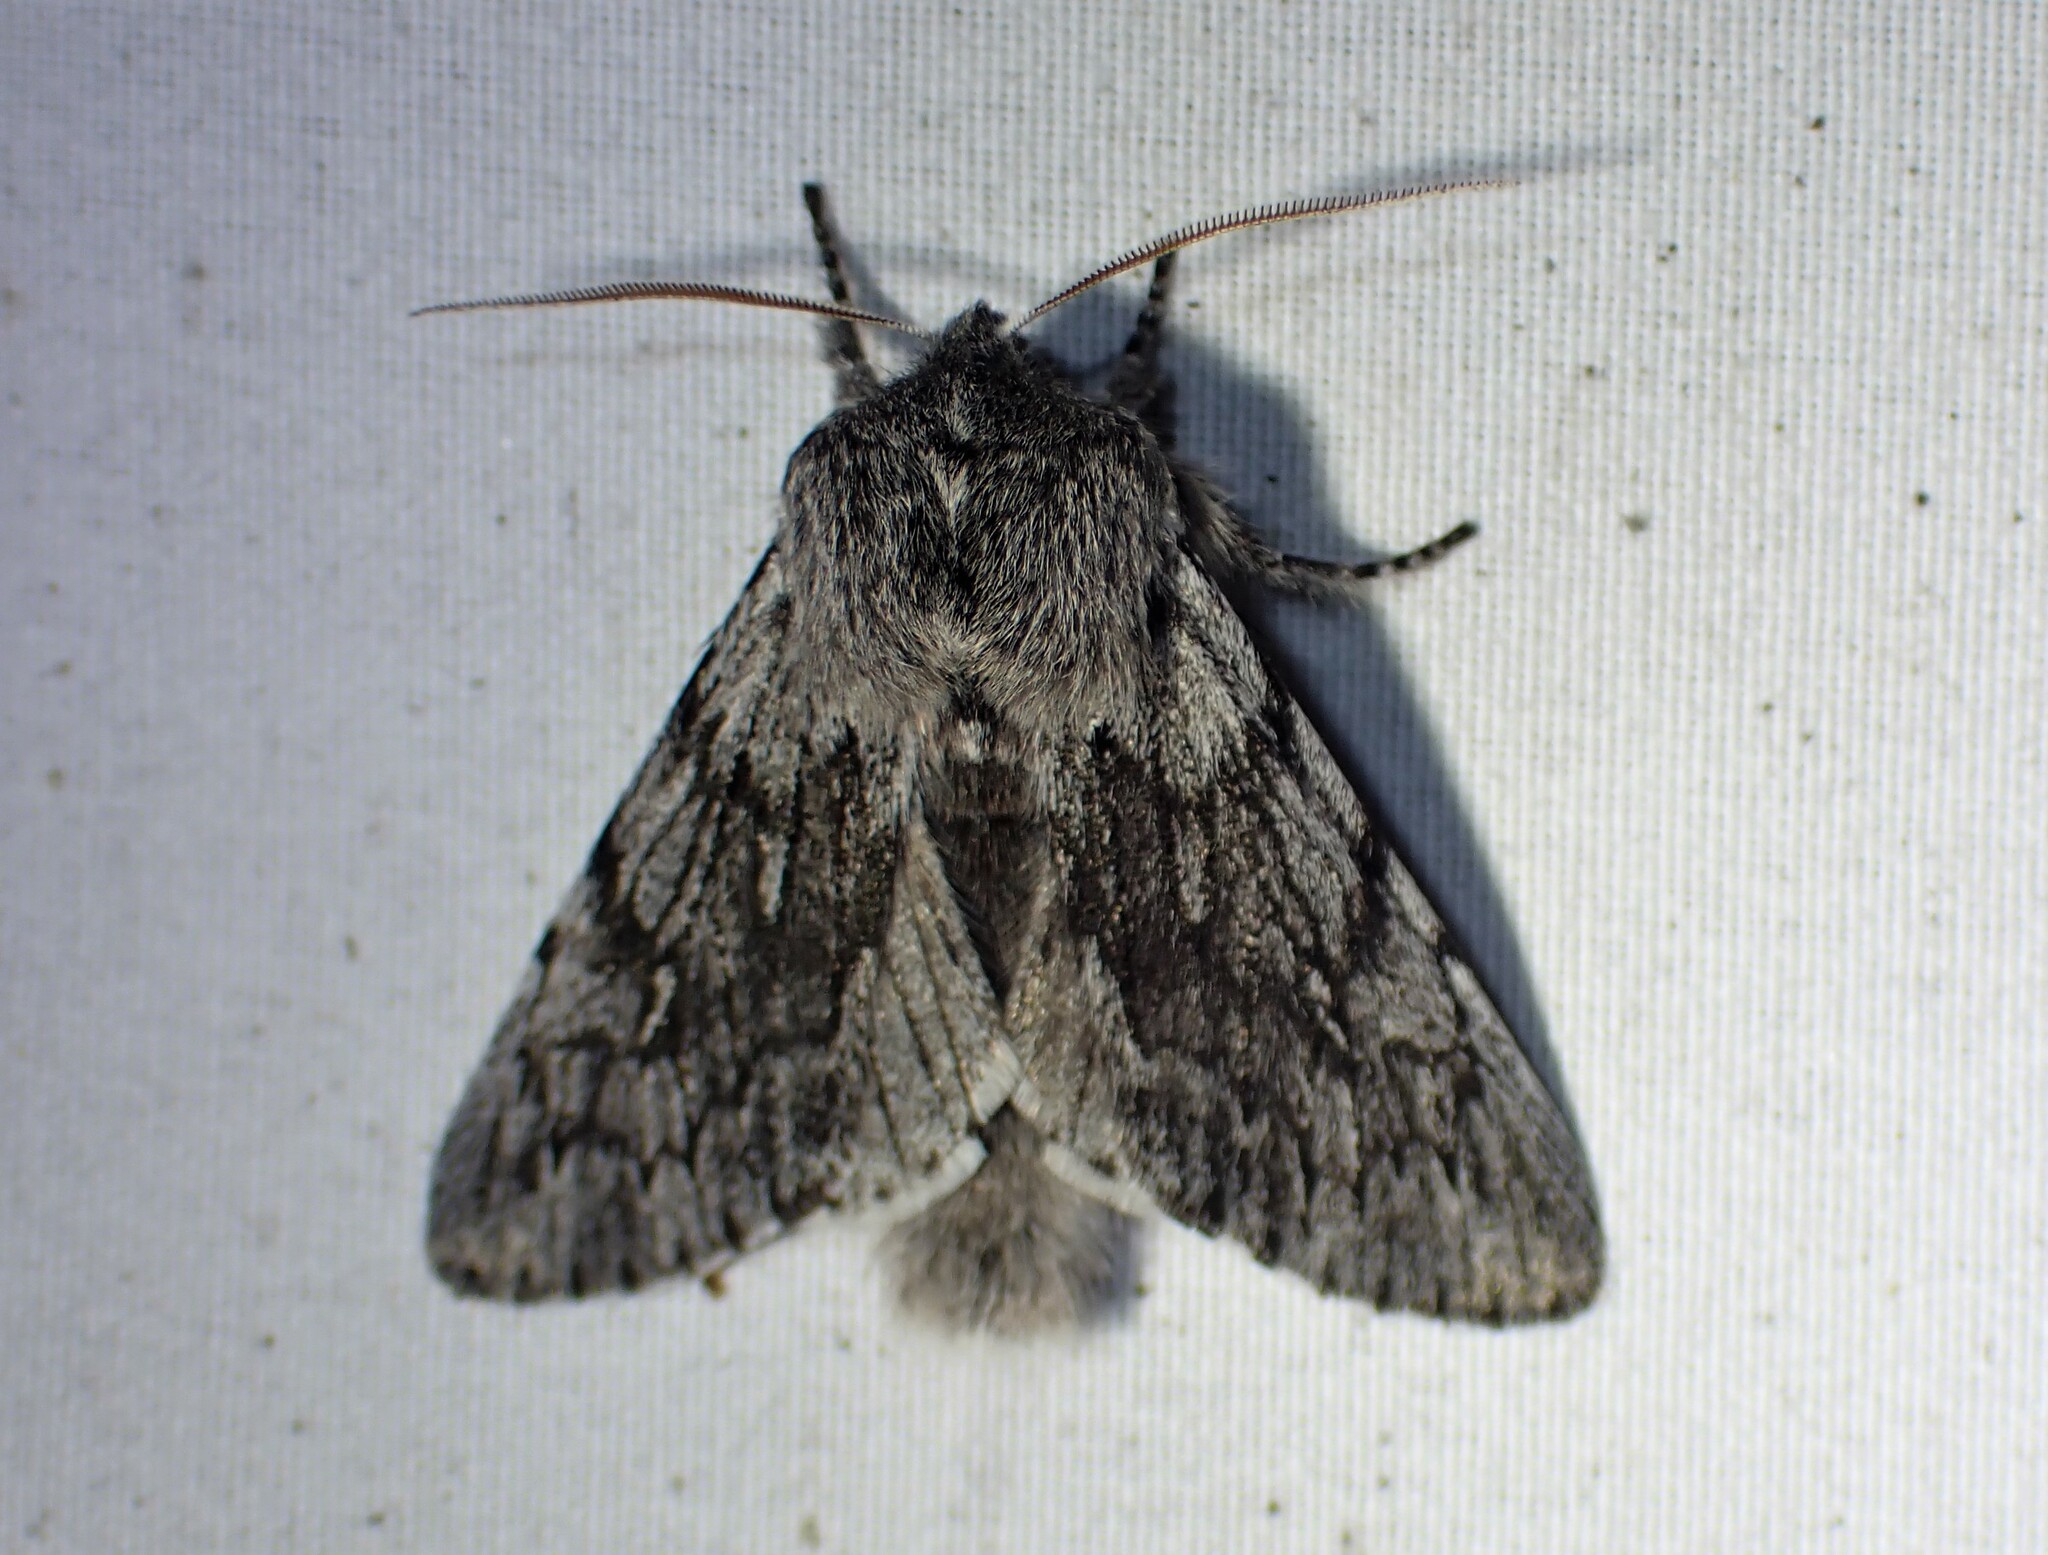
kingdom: Animalia
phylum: Arthropoda
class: Insecta
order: Lepidoptera
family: Noctuidae
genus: Brachionycha
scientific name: Brachionycha borealis
